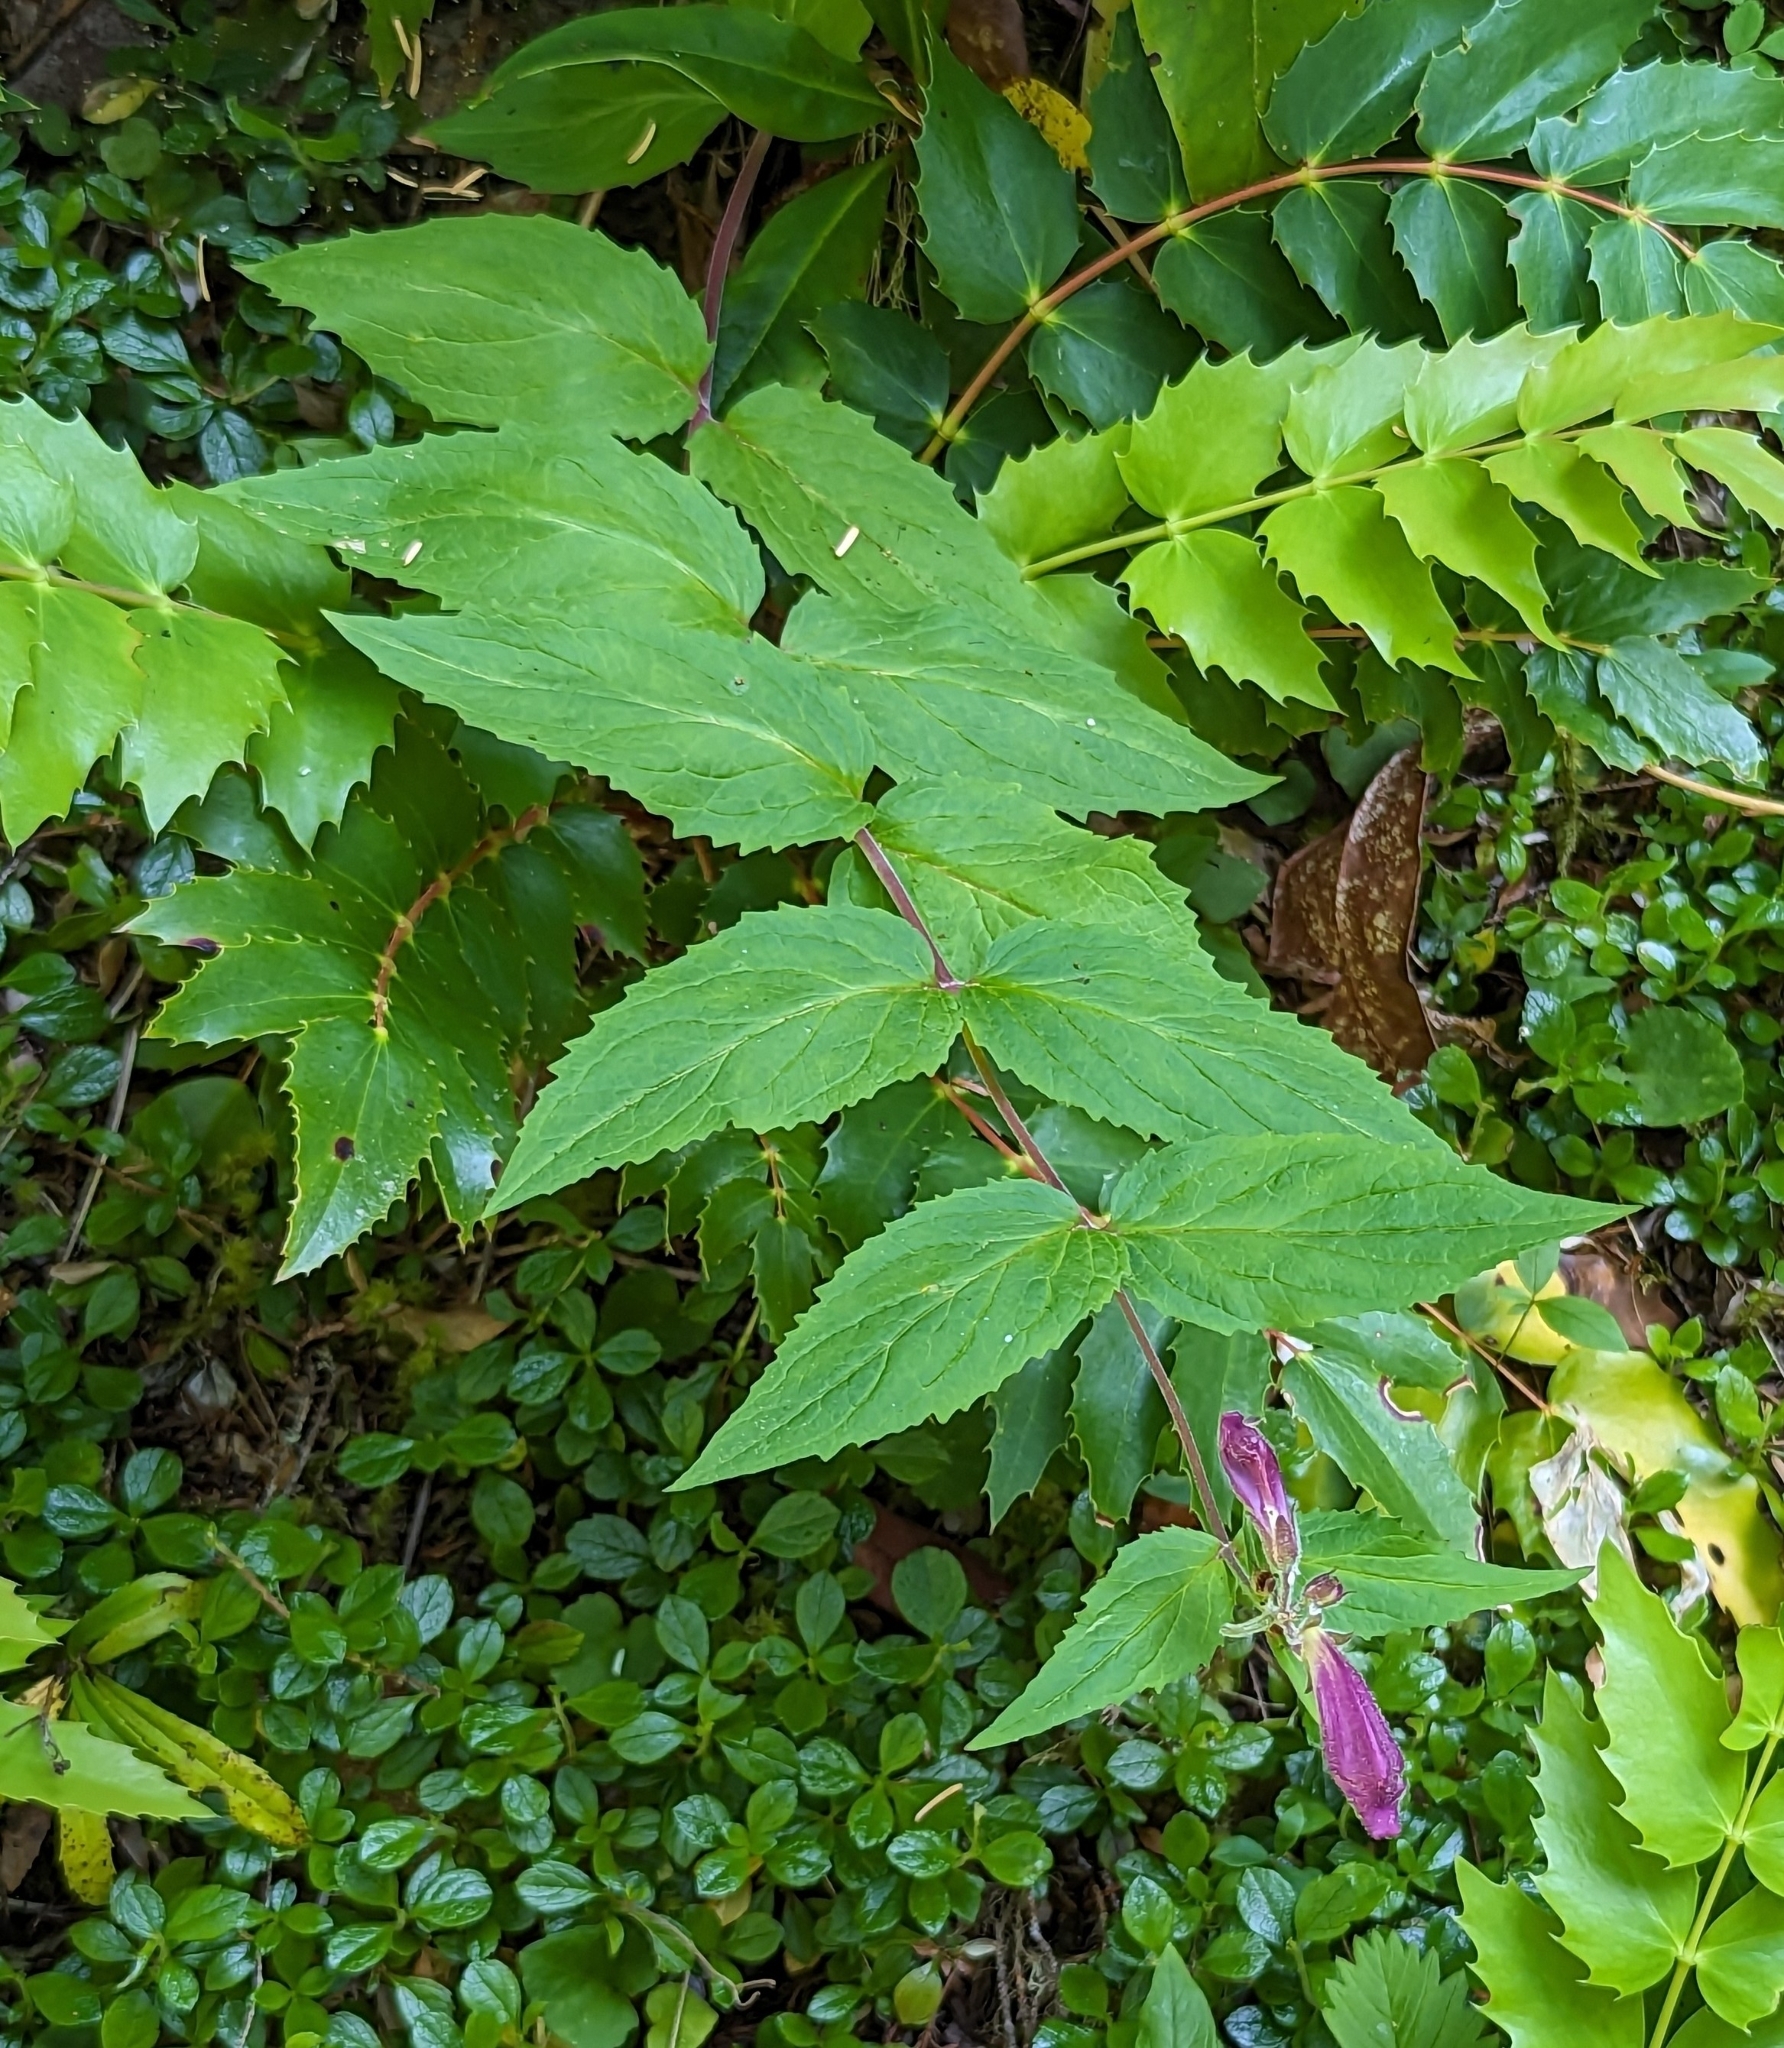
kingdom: Plantae
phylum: Tracheophyta
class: Magnoliopsida
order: Lamiales
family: Plantaginaceae
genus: Nothochelone
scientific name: Nothochelone nemorosa
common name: Woodland beardtongue
